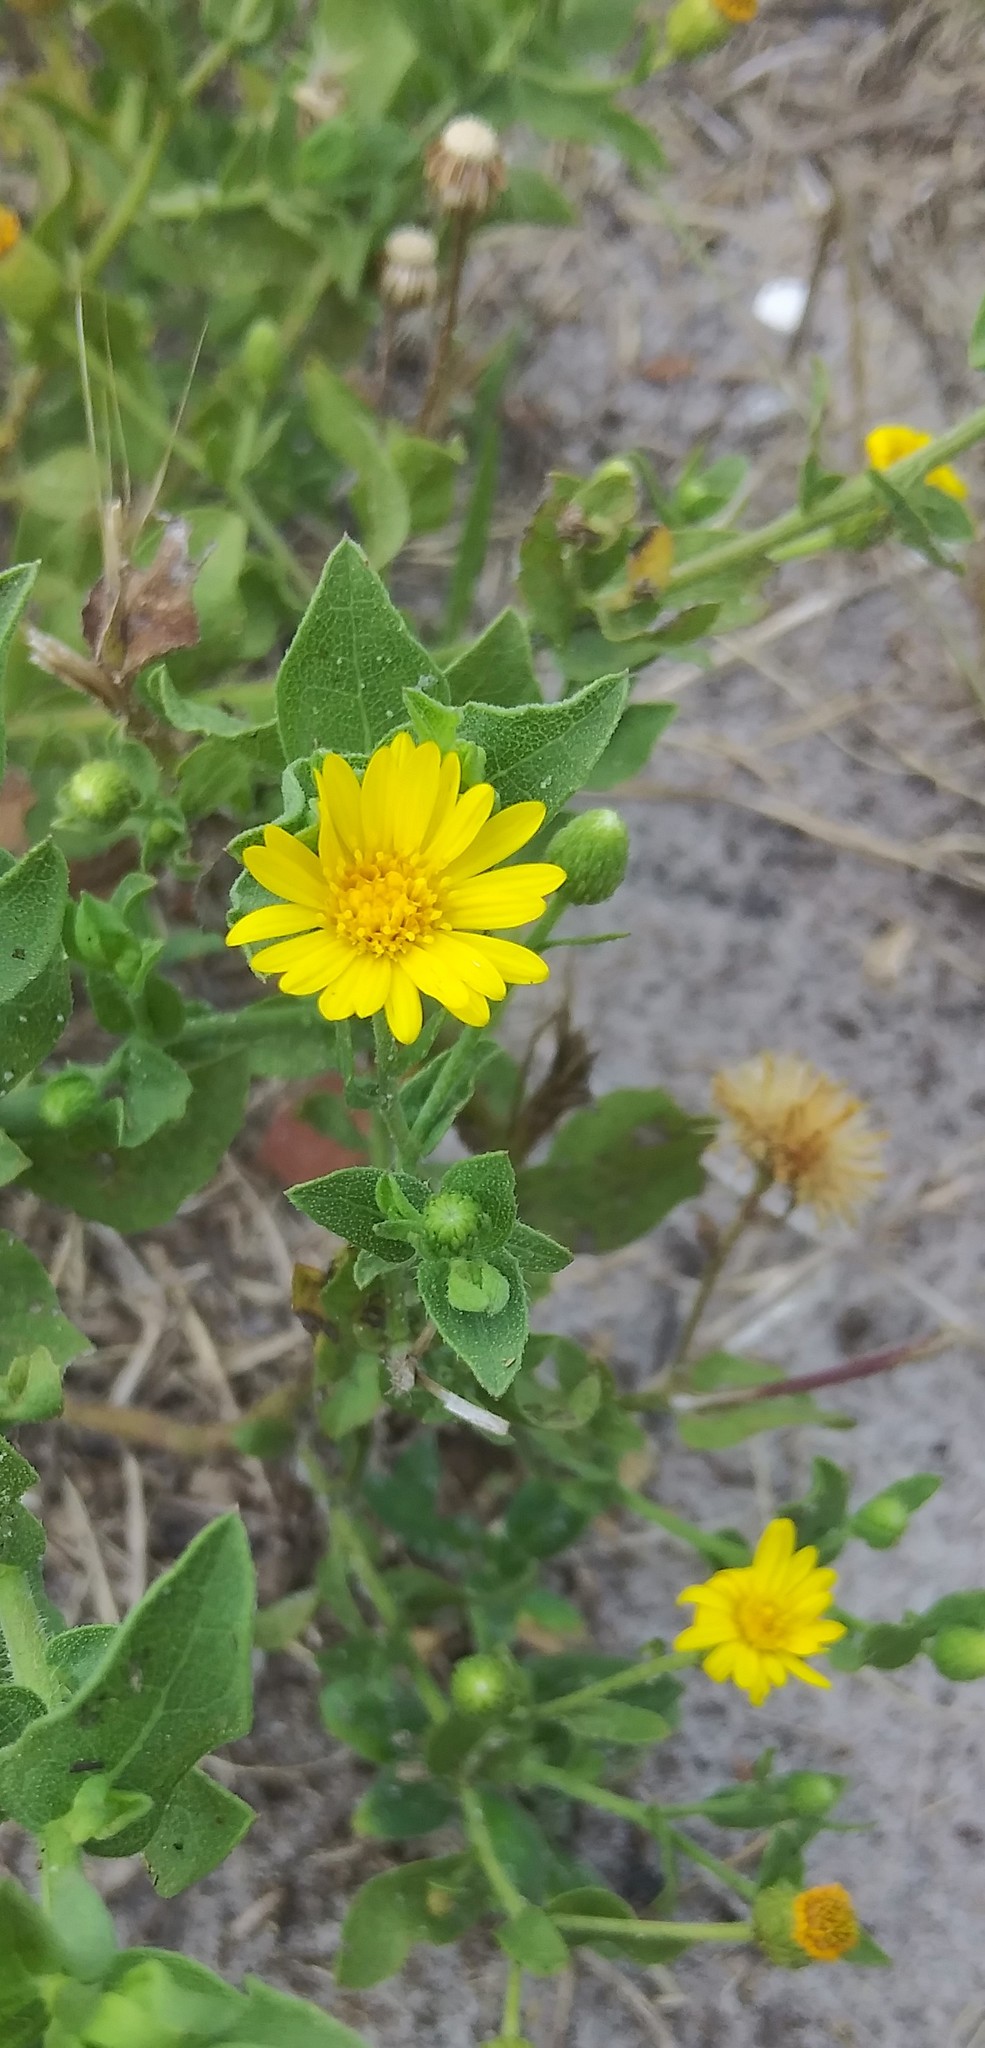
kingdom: Plantae
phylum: Tracheophyta
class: Magnoliopsida
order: Asterales
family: Asteraceae
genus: Heterotheca
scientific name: Heterotheca subaxillaris
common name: Camphorweed
